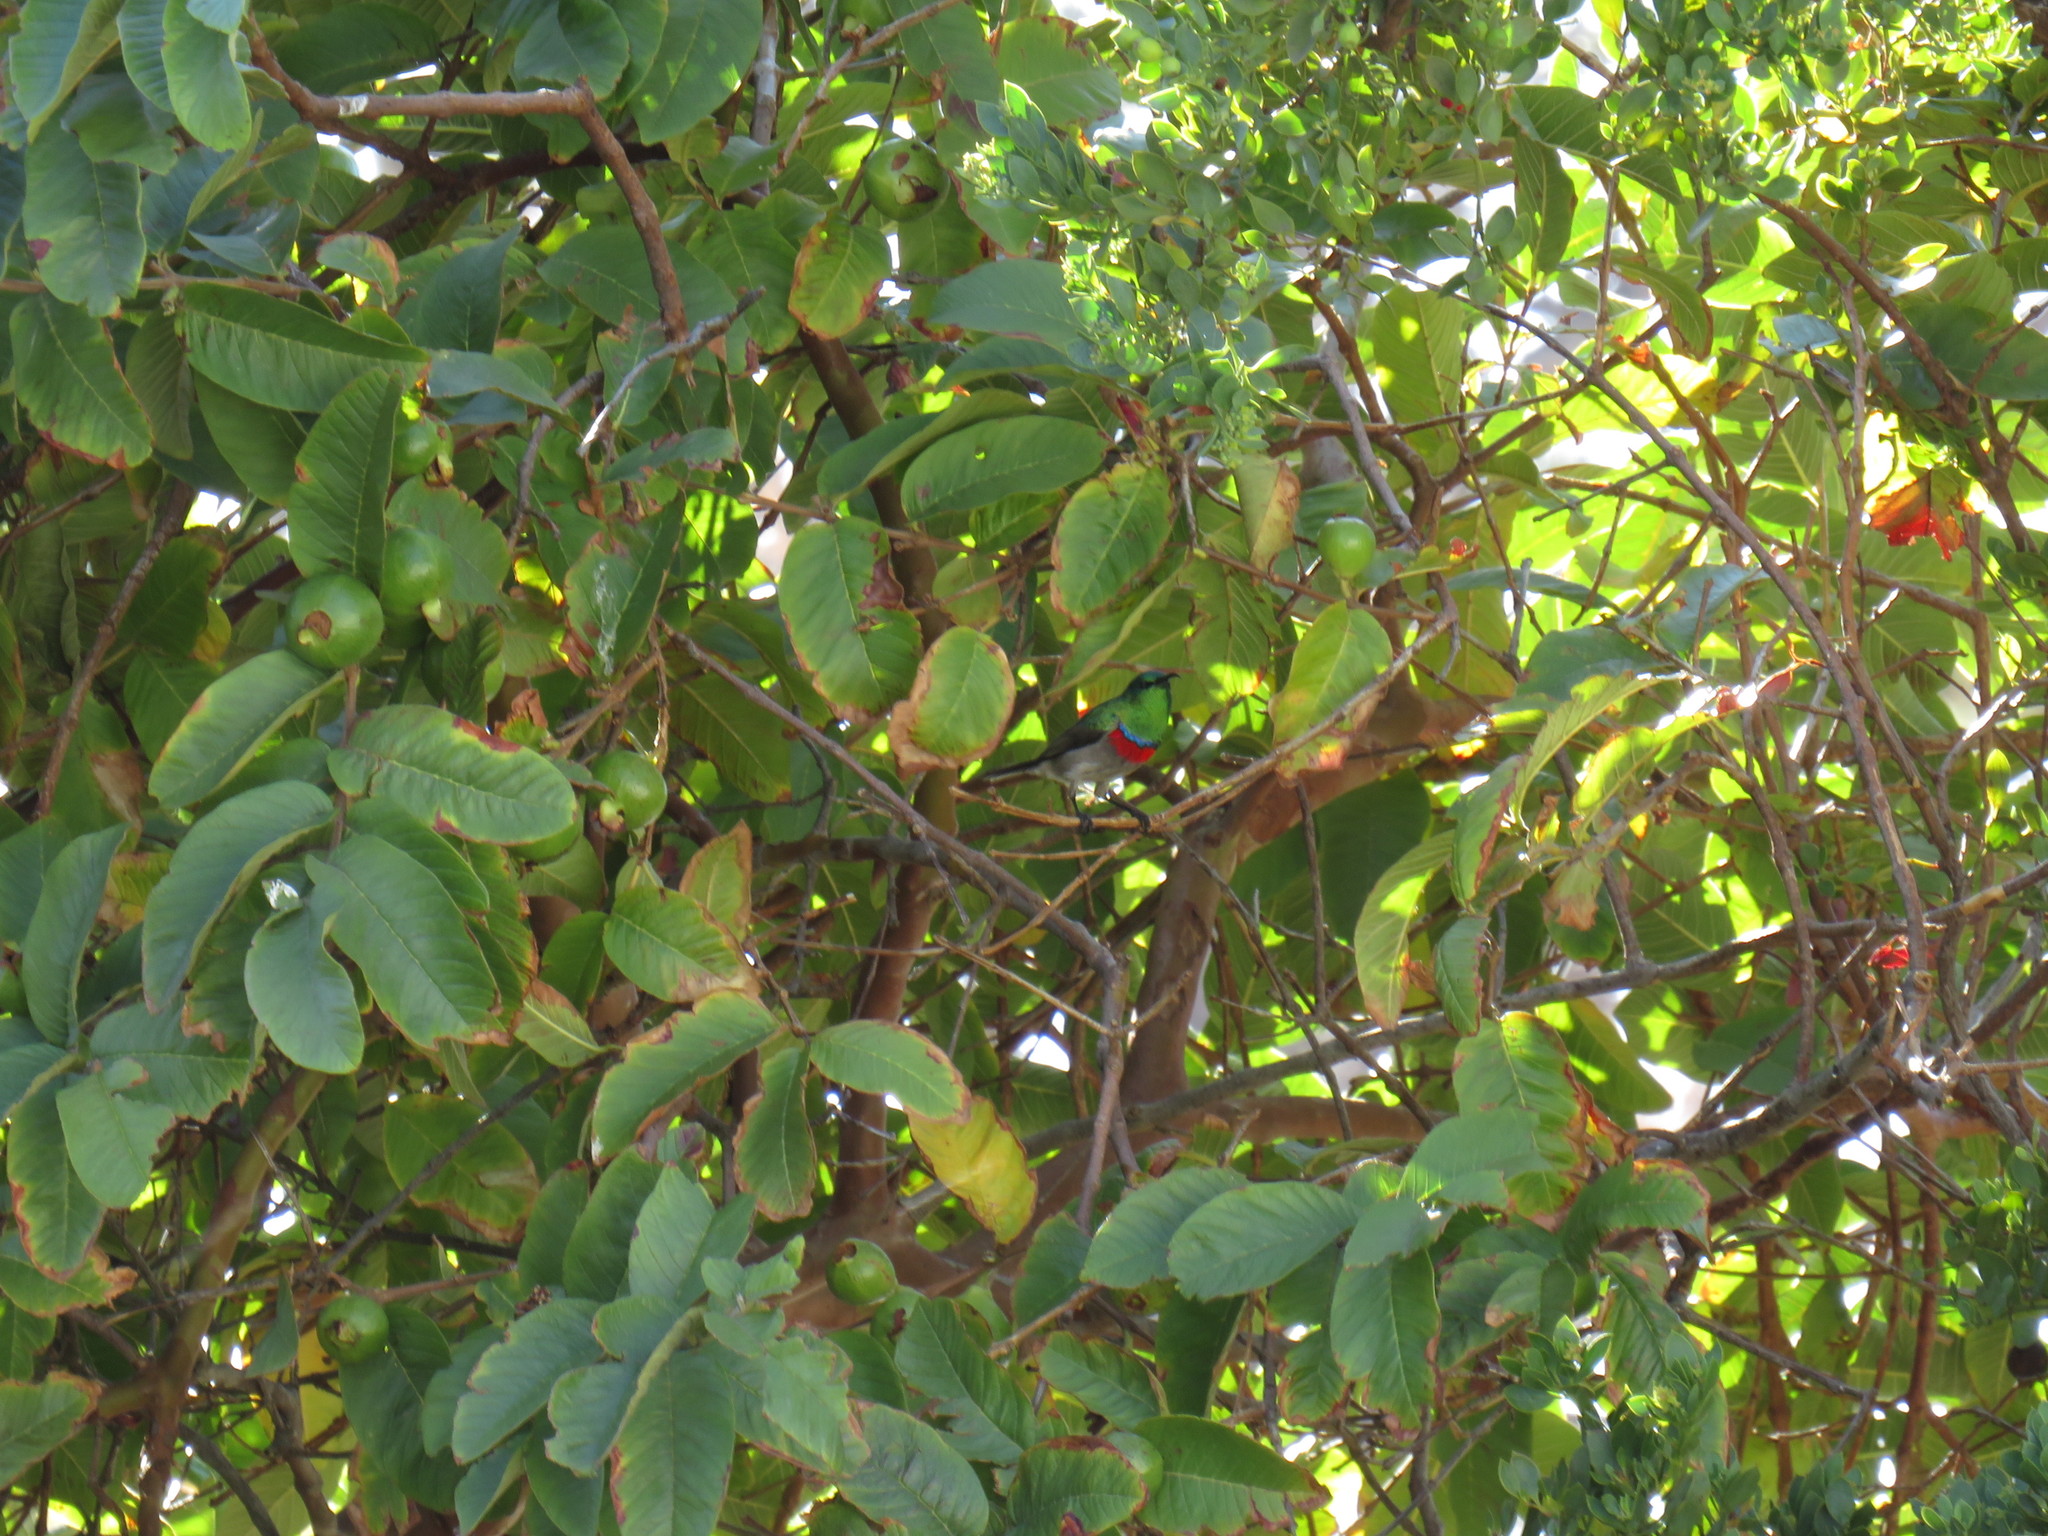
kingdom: Animalia
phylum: Chordata
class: Aves
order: Passeriformes
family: Nectariniidae
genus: Cinnyris
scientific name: Cinnyris chalybeus
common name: Southern double-collared sunbird
